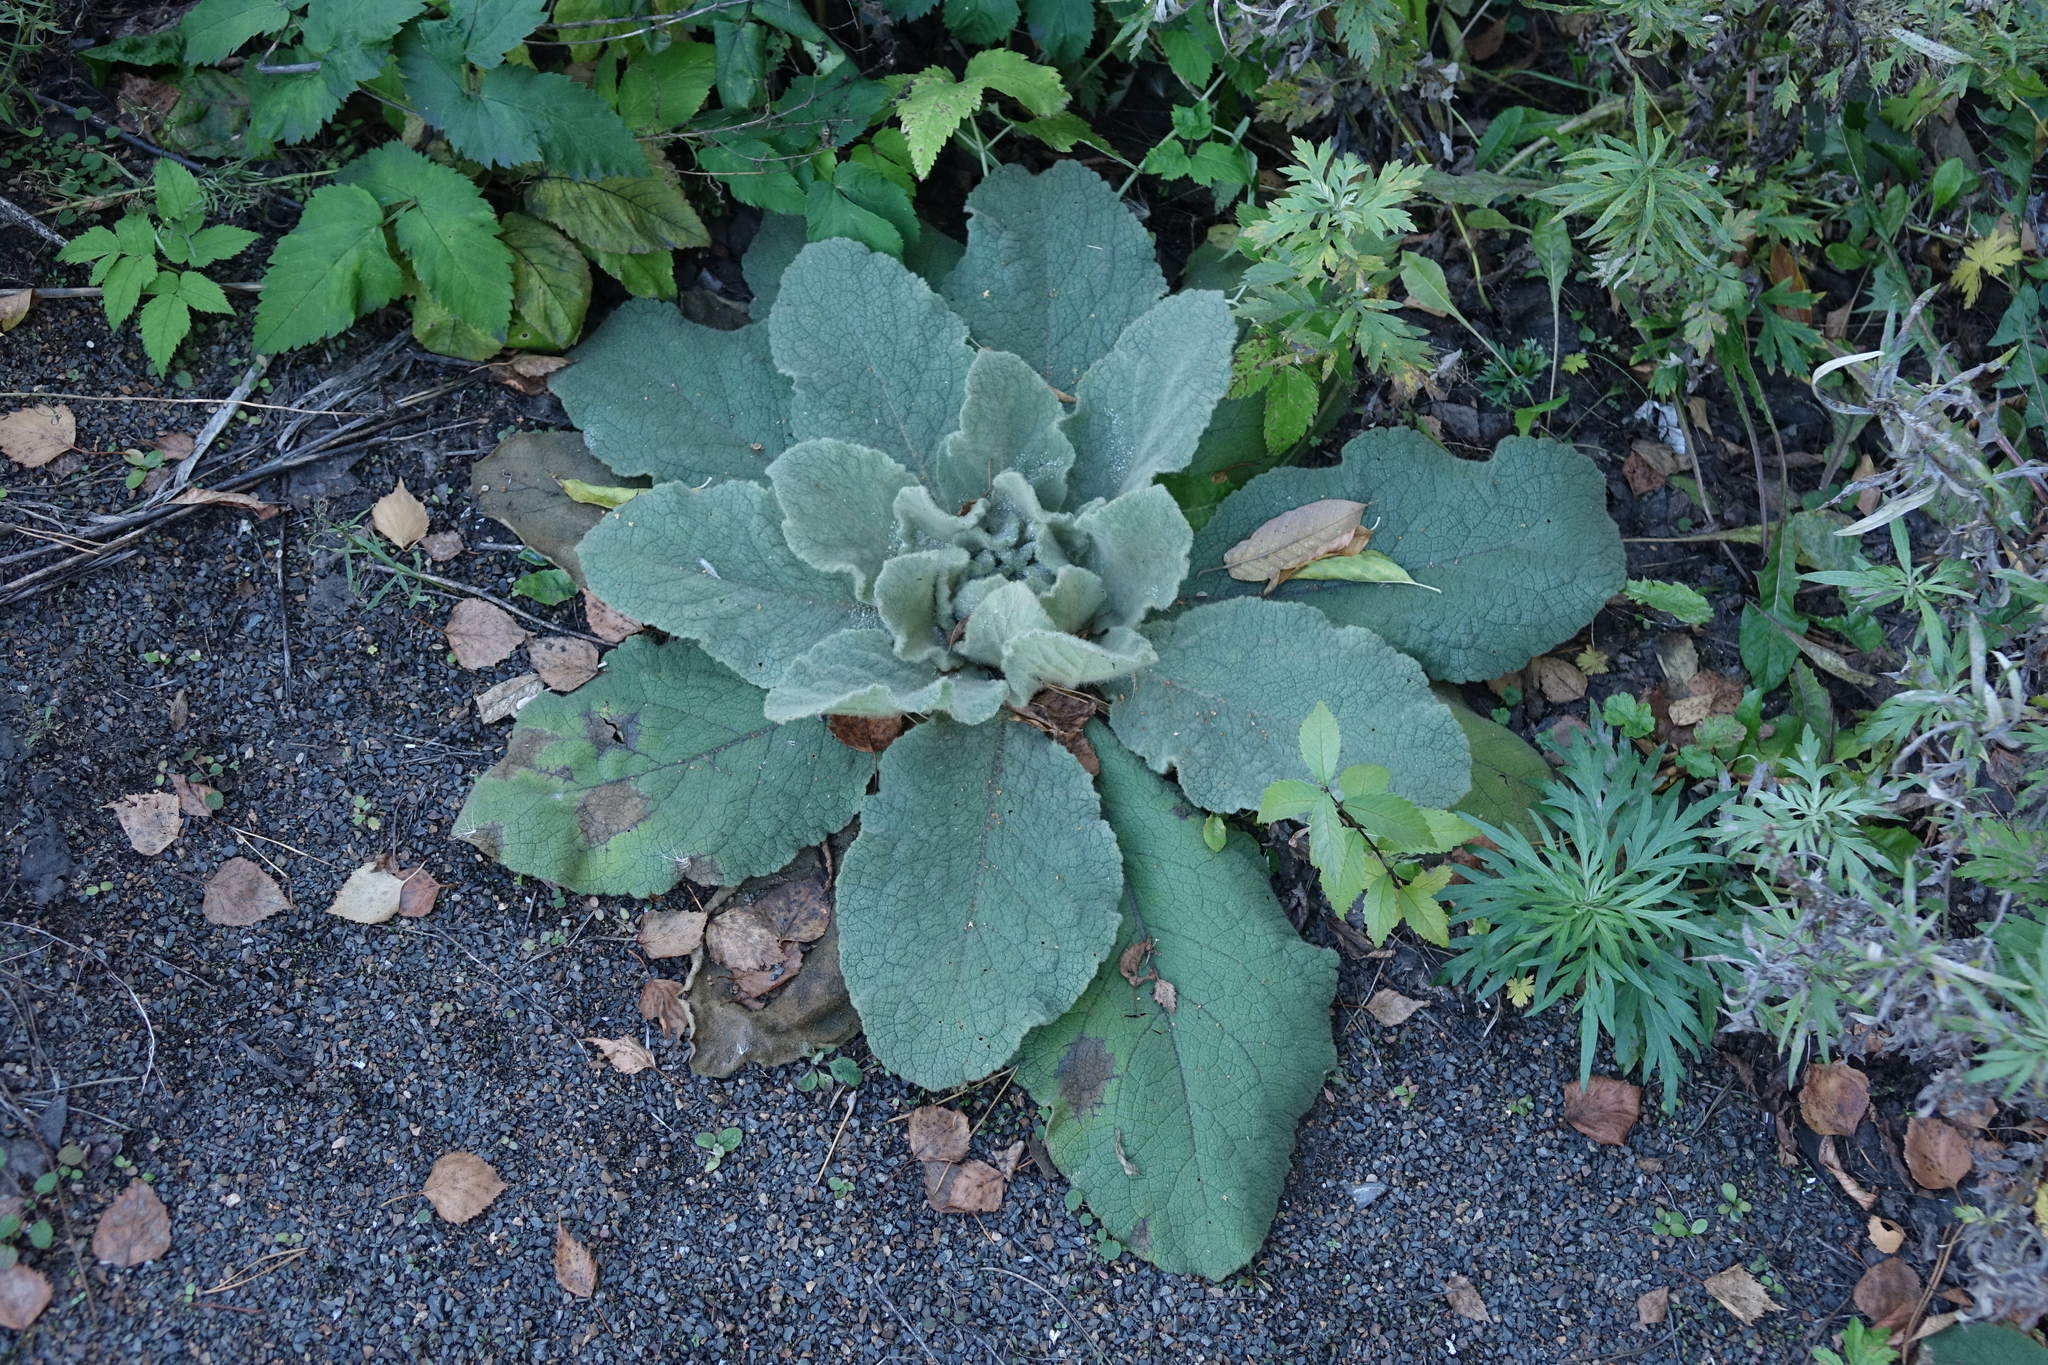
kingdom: Plantae
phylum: Tracheophyta
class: Magnoliopsida
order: Lamiales
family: Scrophulariaceae
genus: Verbascum
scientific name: Verbascum thapsus
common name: Common mullein
